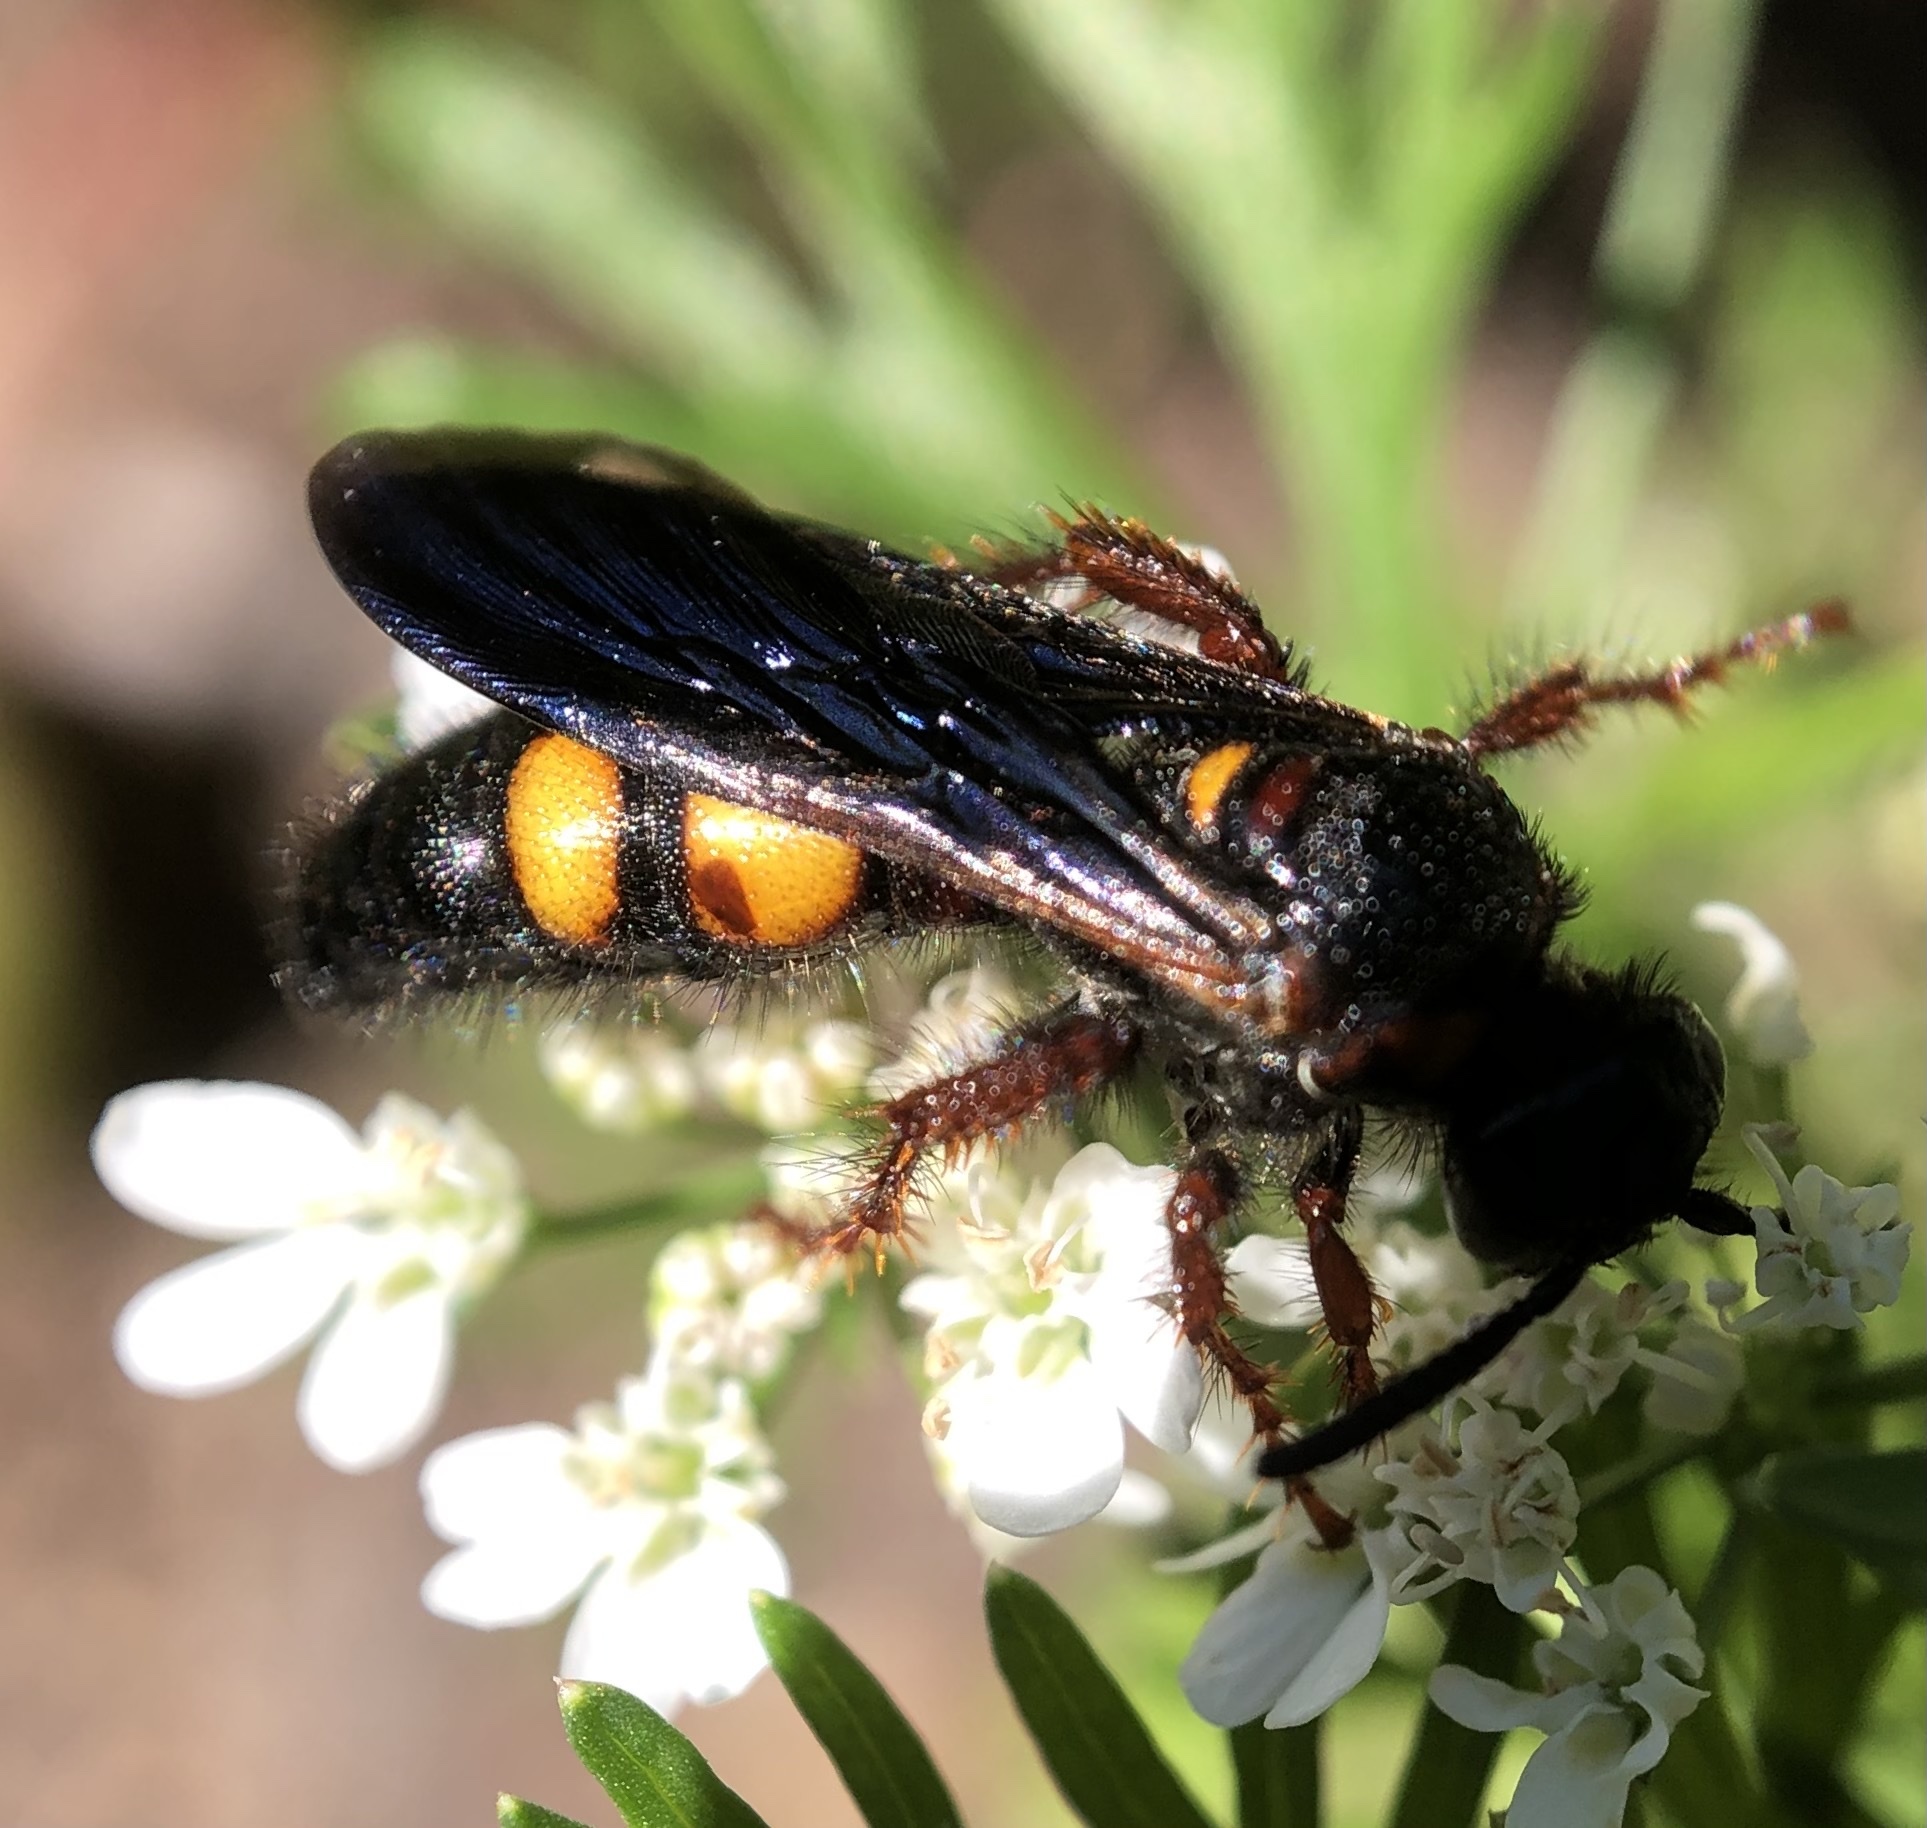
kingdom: Animalia
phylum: Arthropoda
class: Insecta
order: Hymenoptera
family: Scoliidae
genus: Scolia
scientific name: Scolia nobilitata
